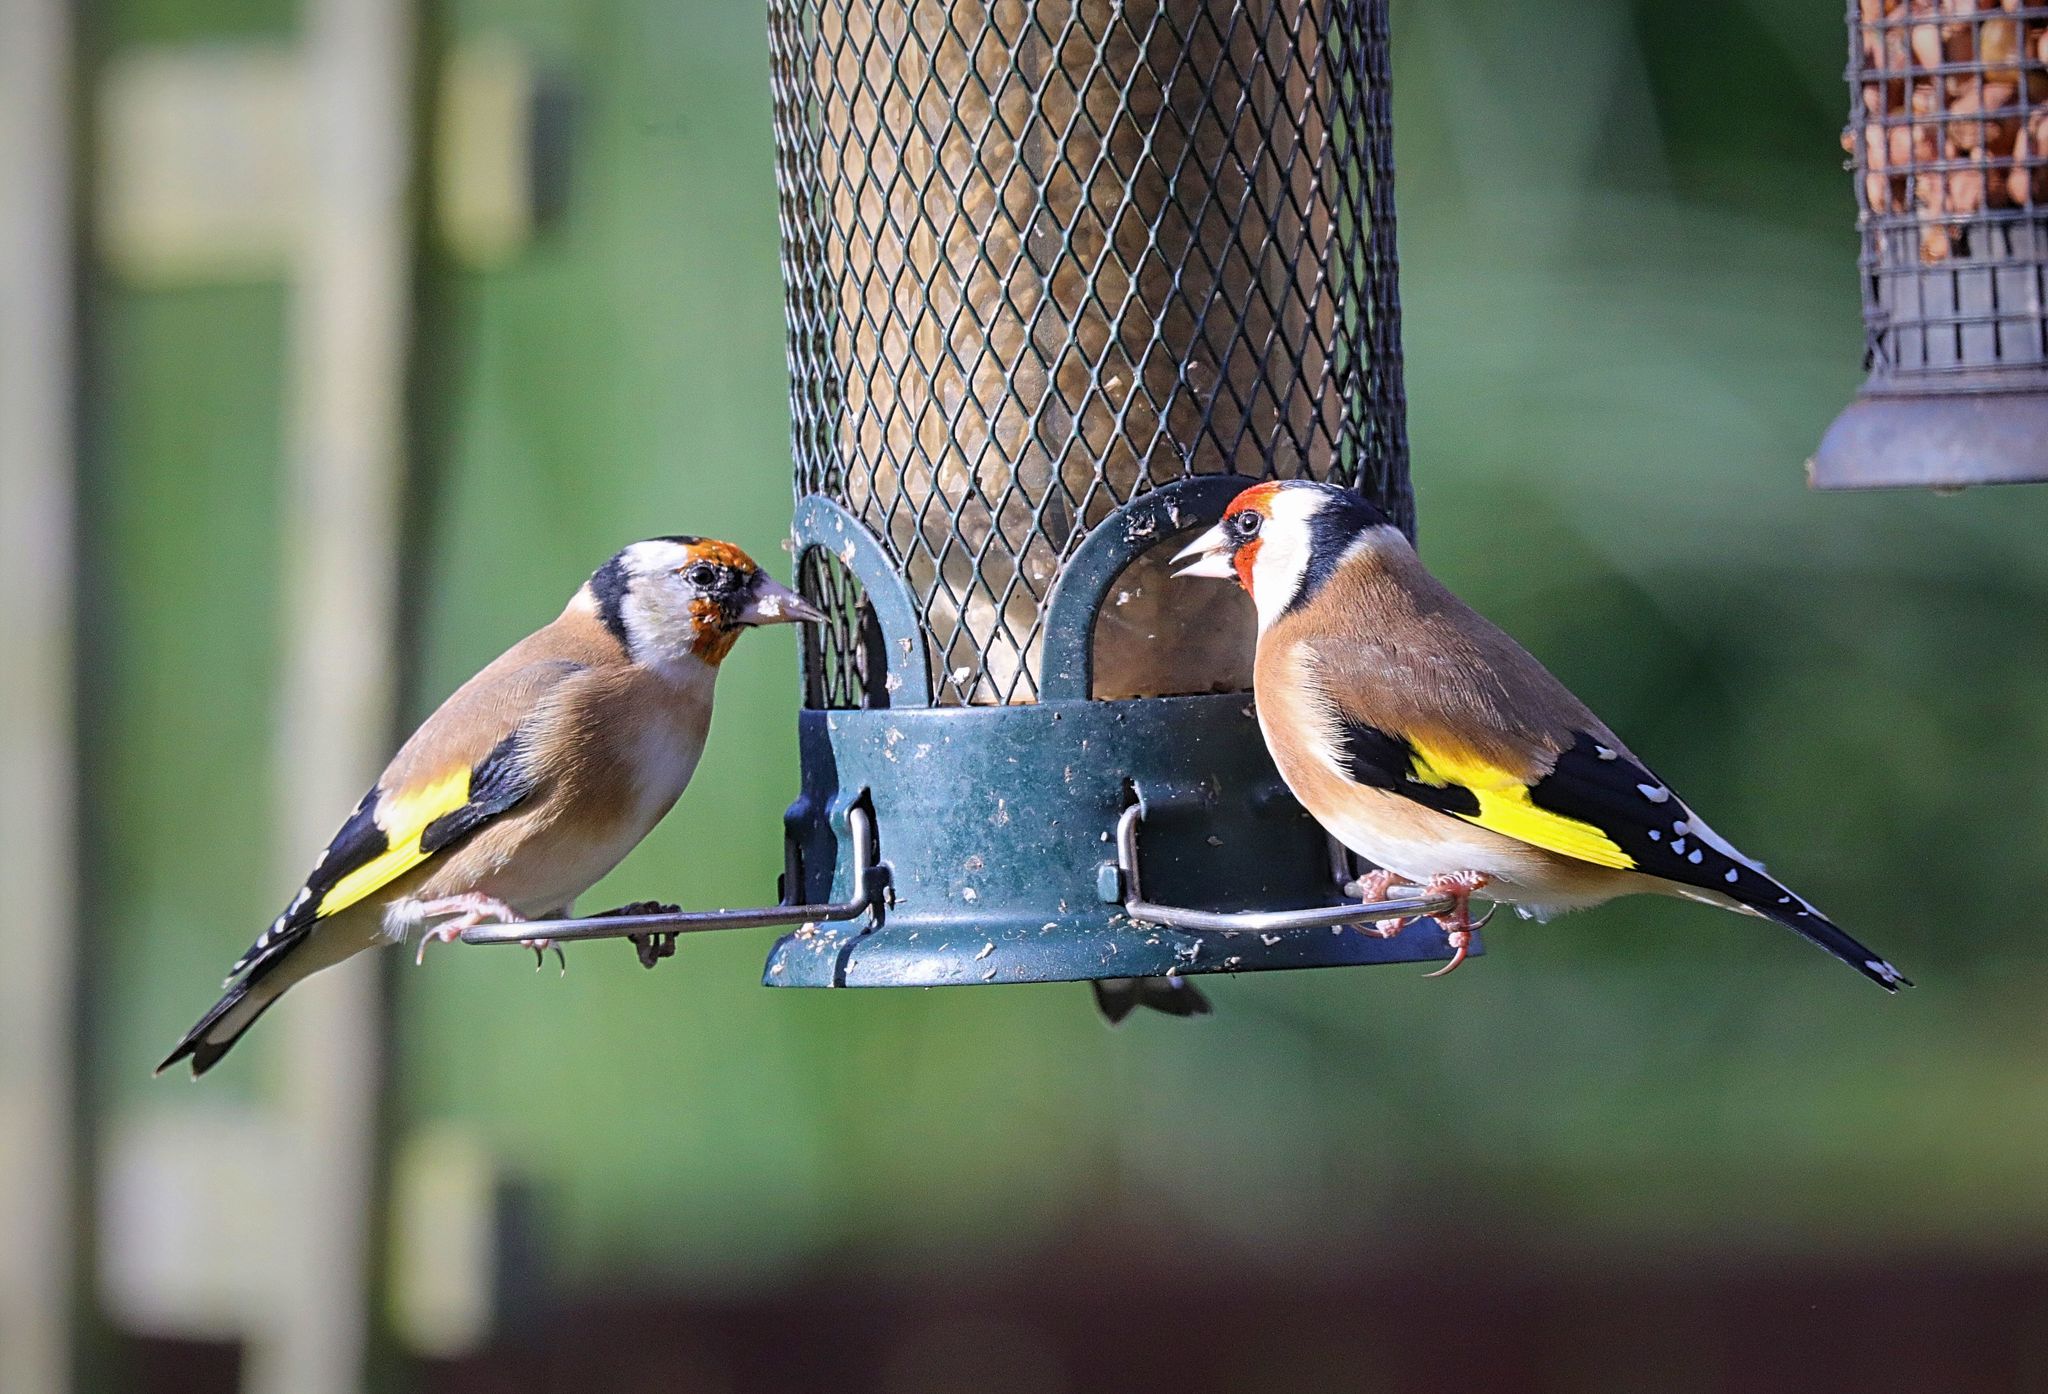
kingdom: Animalia
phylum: Chordata
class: Aves
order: Passeriformes
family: Fringillidae
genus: Carduelis
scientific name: Carduelis carduelis
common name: European goldfinch
